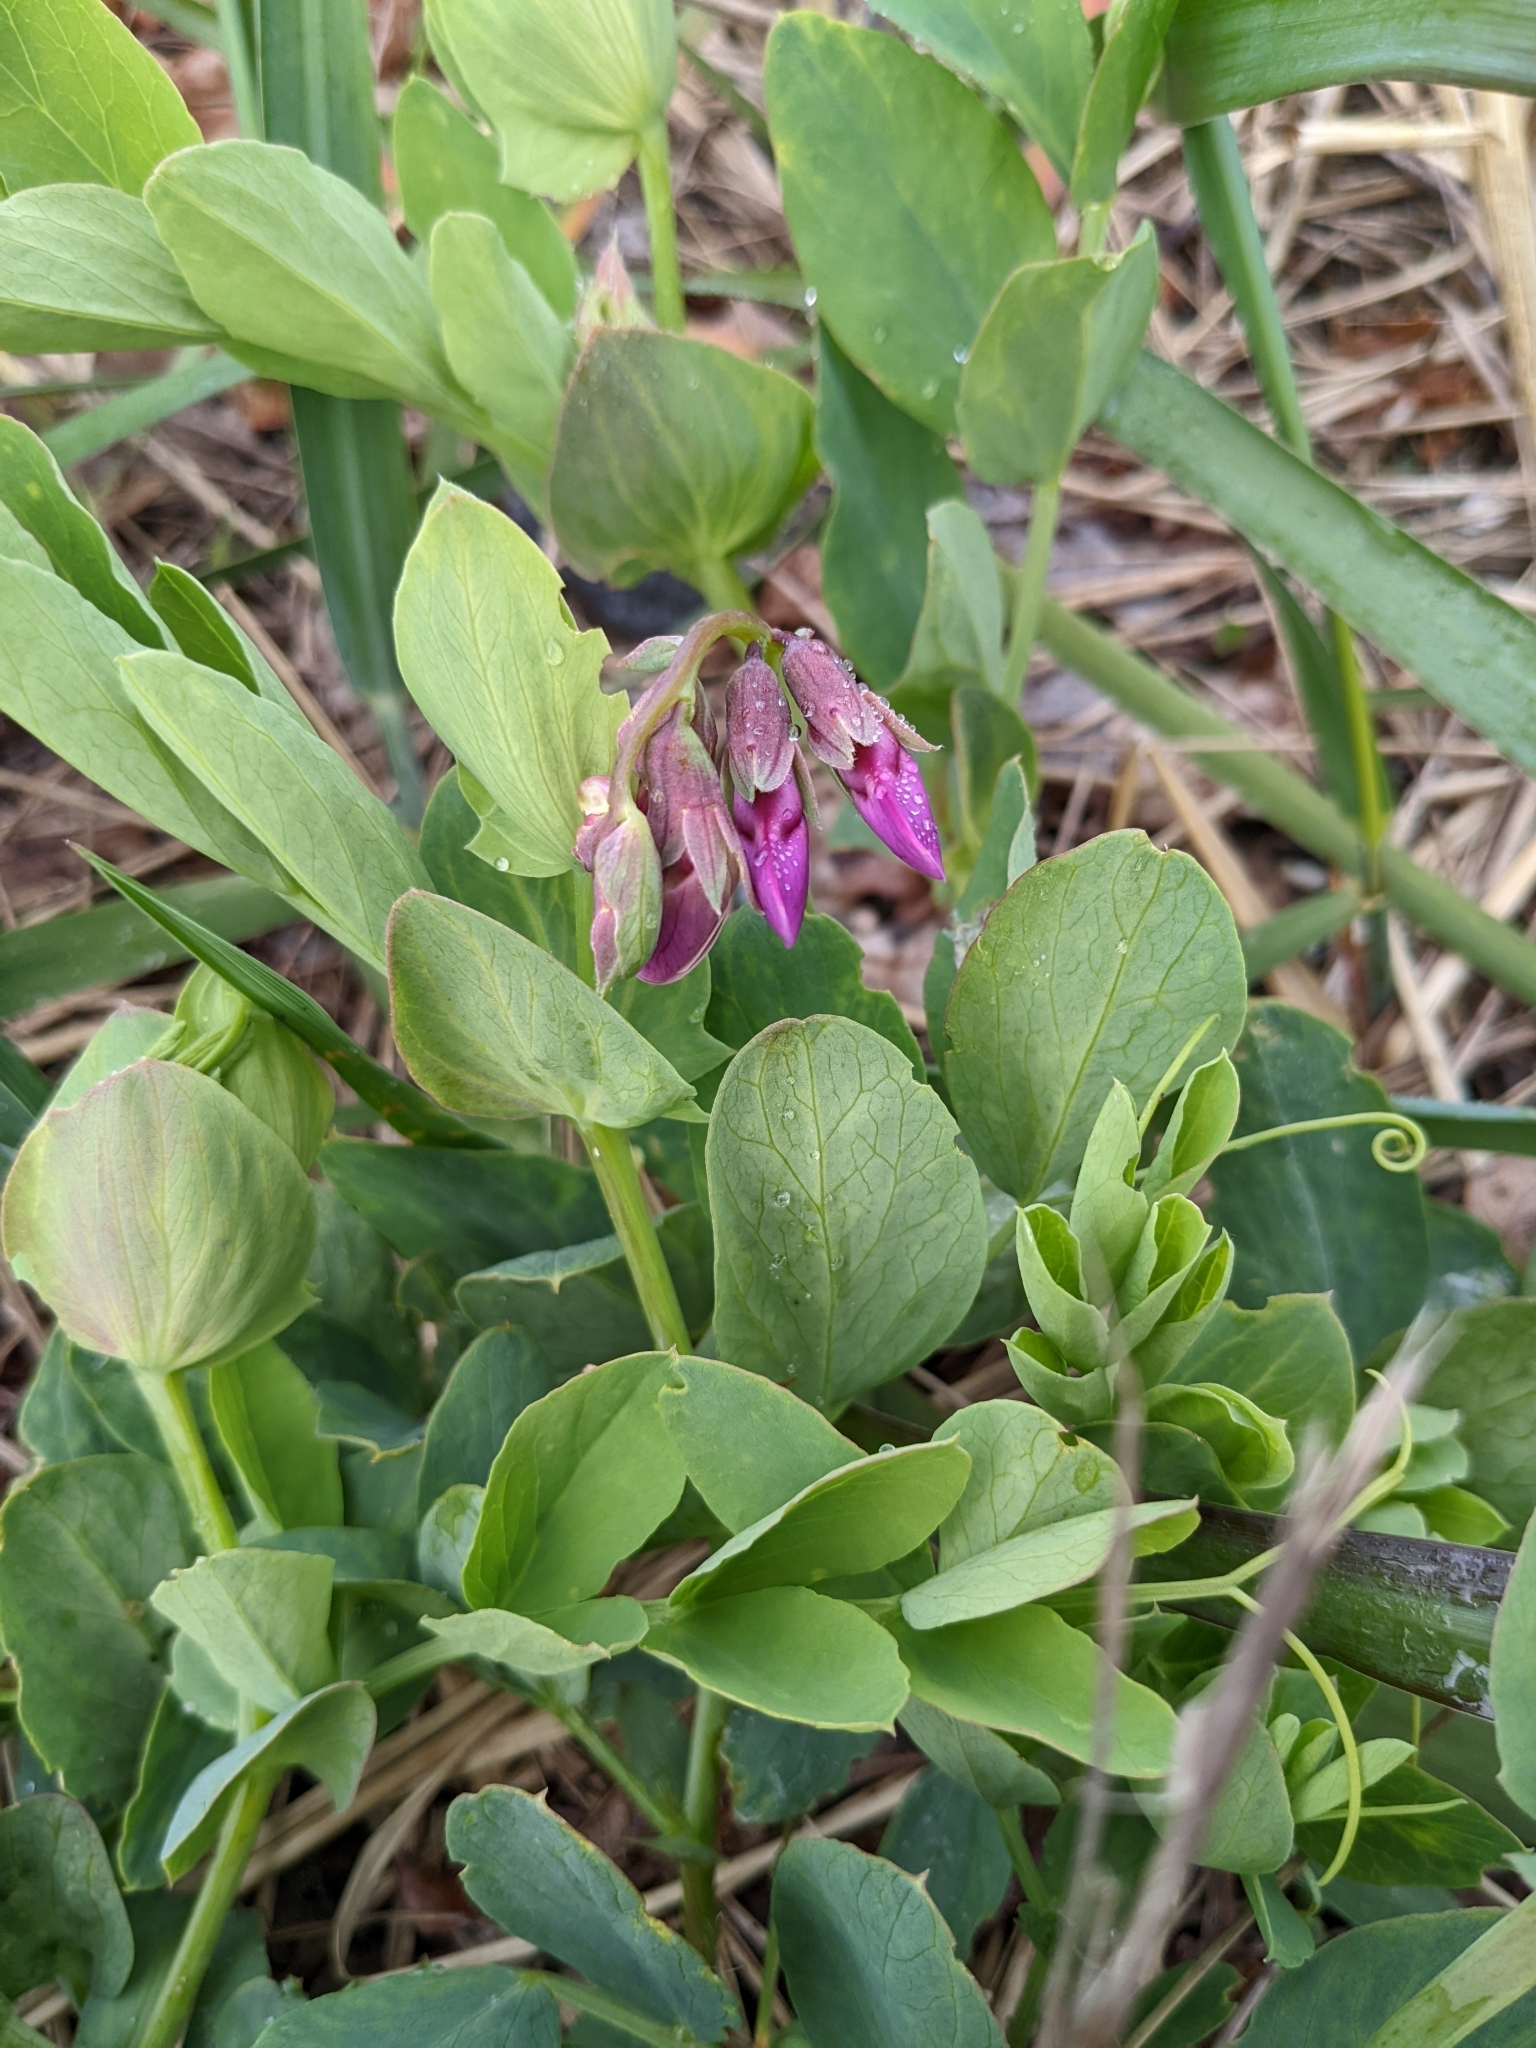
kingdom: Plantae
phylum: Tracheophyta
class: Magnoliopsida
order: Fabales
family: Fabaceae
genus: Lathyrus
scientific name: Lathyrus japonicus
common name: Sea pea
